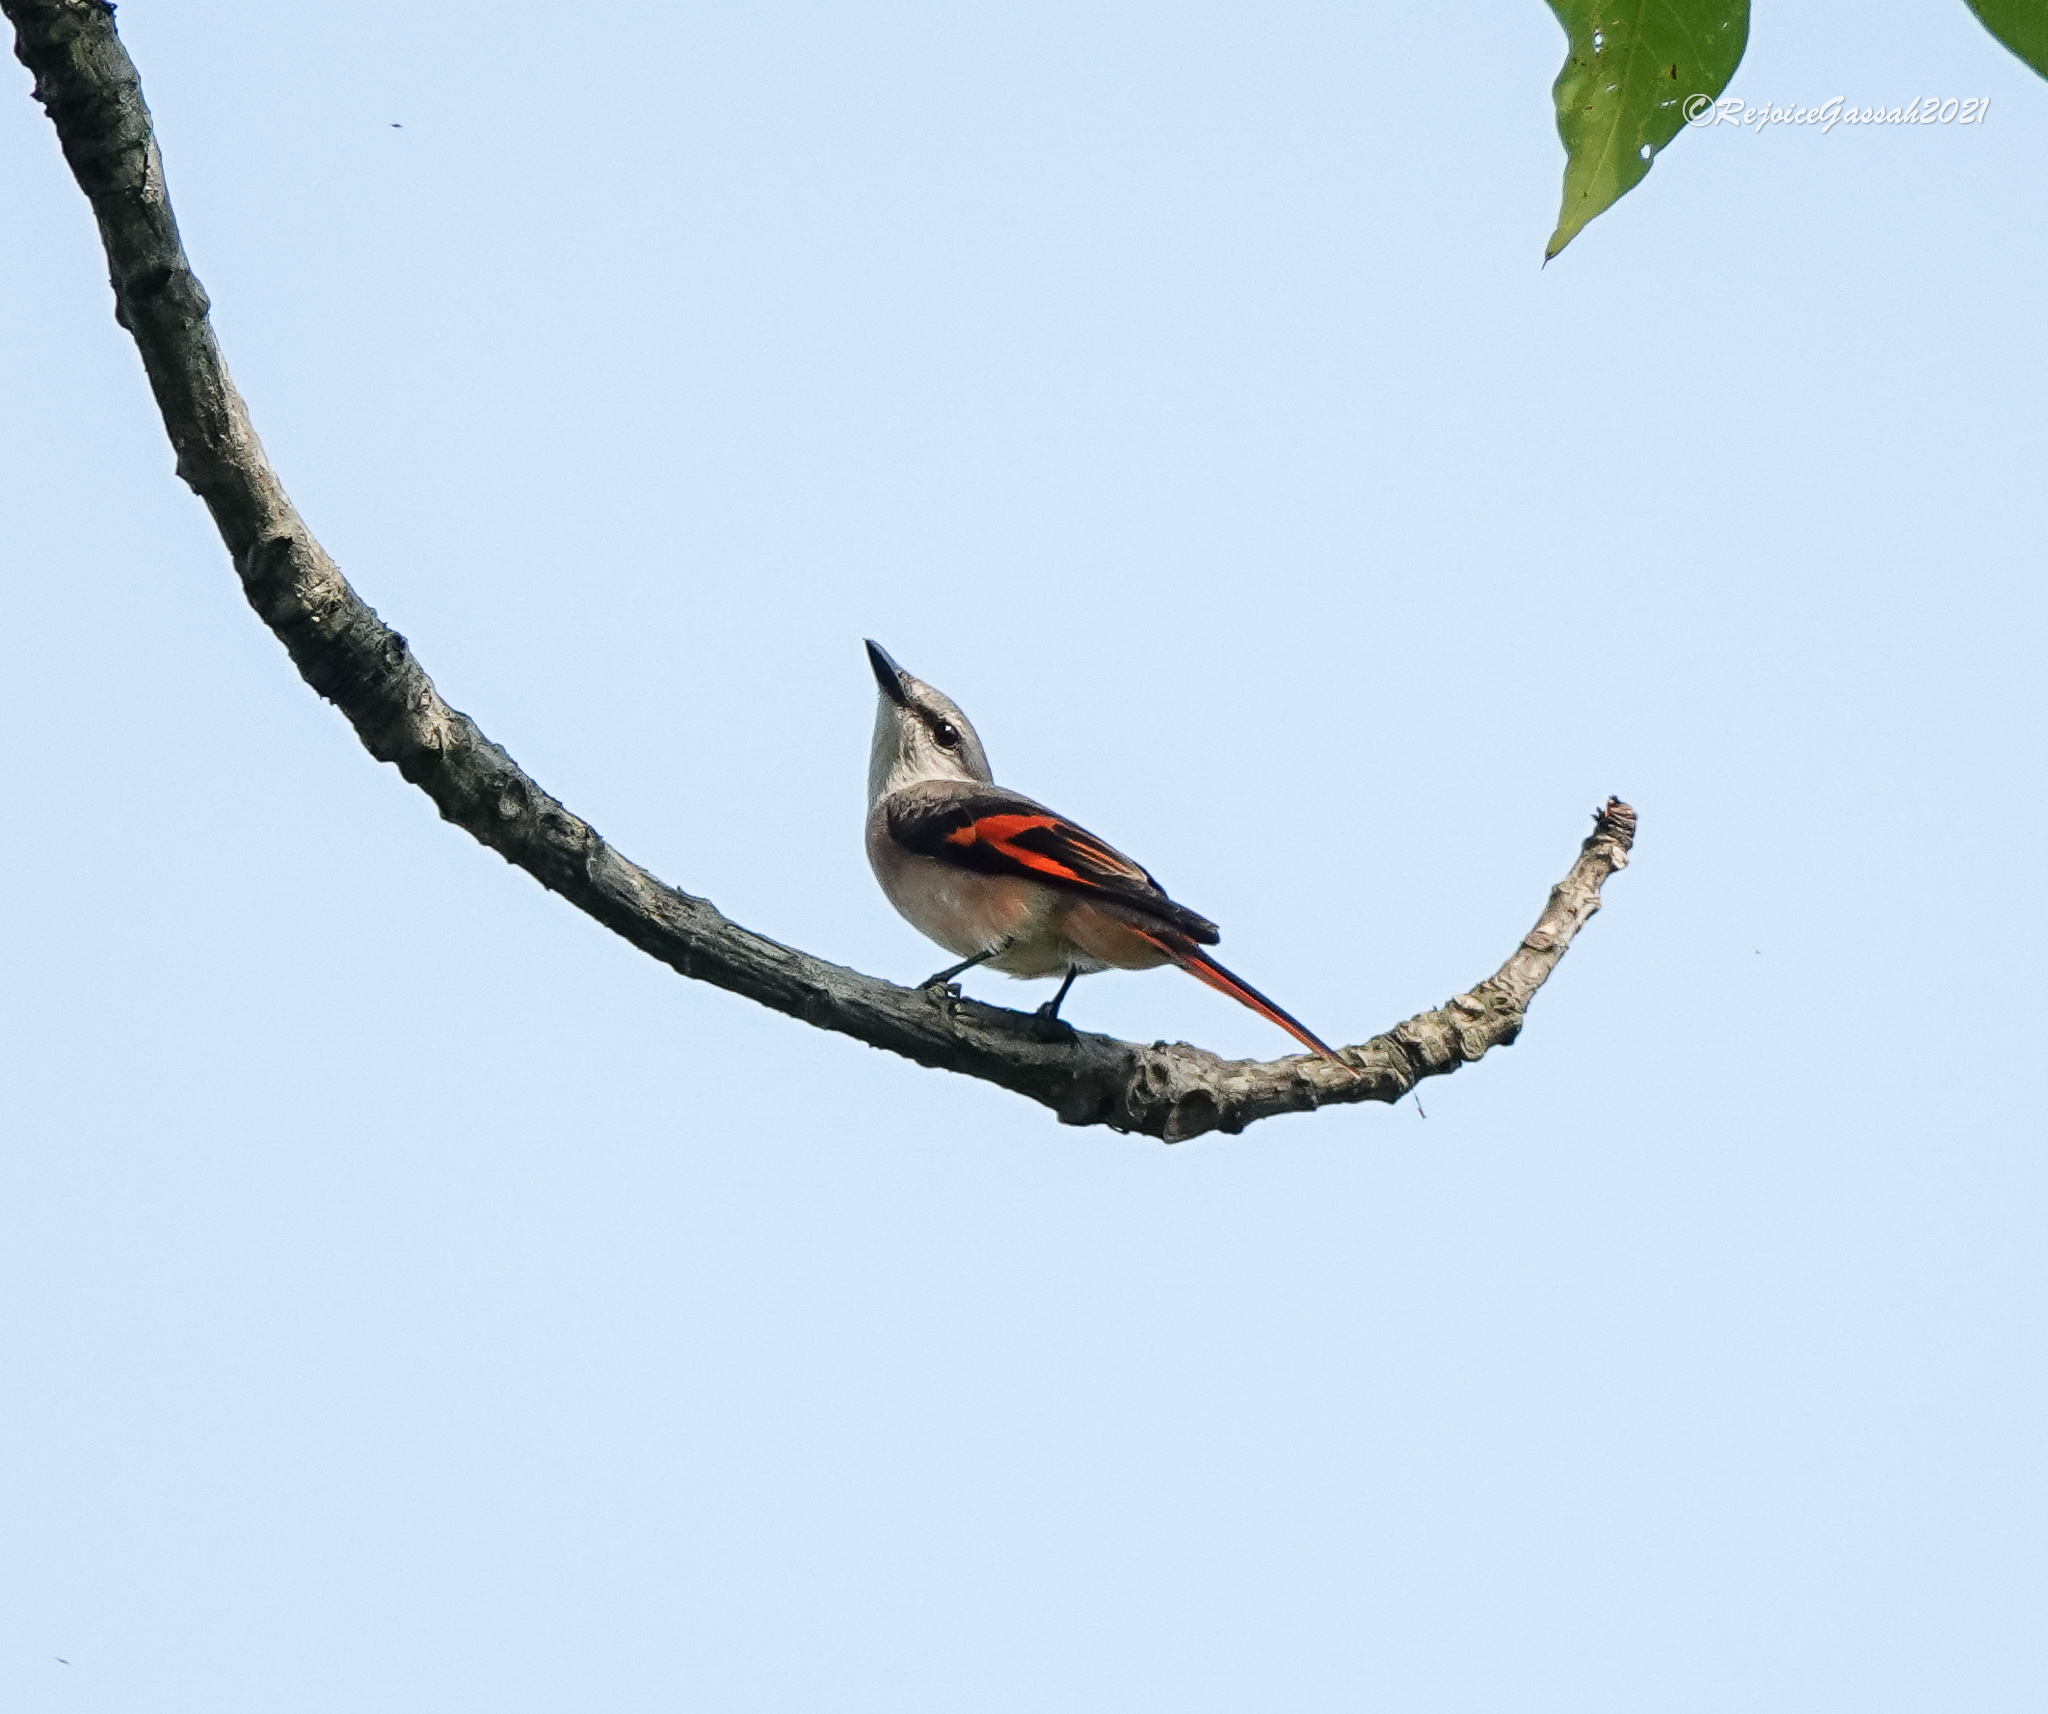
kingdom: Animalia
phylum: Chordata
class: Aves
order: Passeriformes
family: Campephagidae
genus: Pericrocotus
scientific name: Pericrocotus roseus
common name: Rosy minivet
